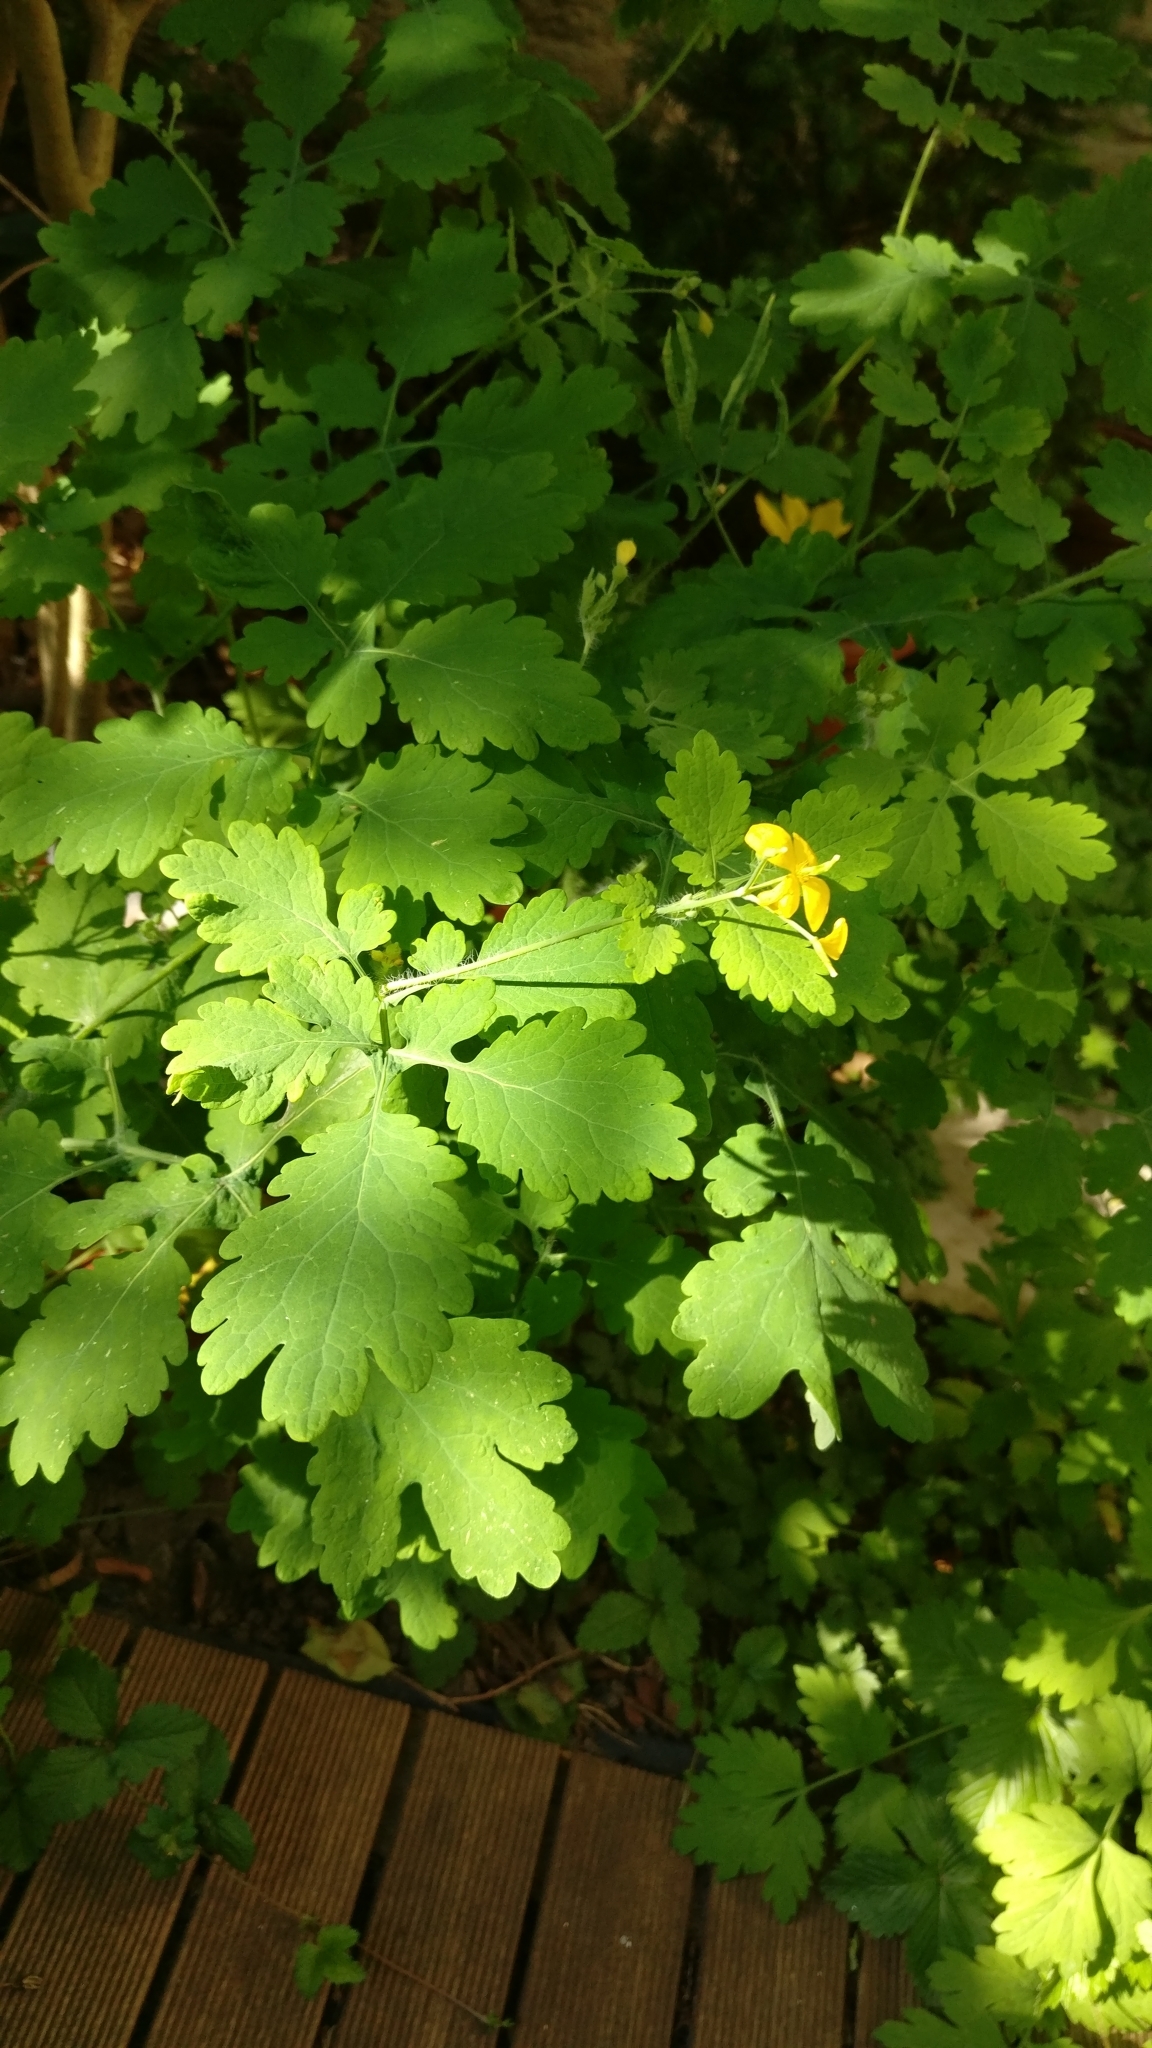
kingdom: Plantae
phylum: Tracheophyta
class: Magnoliopsida
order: Ranunculales
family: Papaveraceae
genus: Chelidonium
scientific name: Chelidonium majus
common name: Greater celandine
